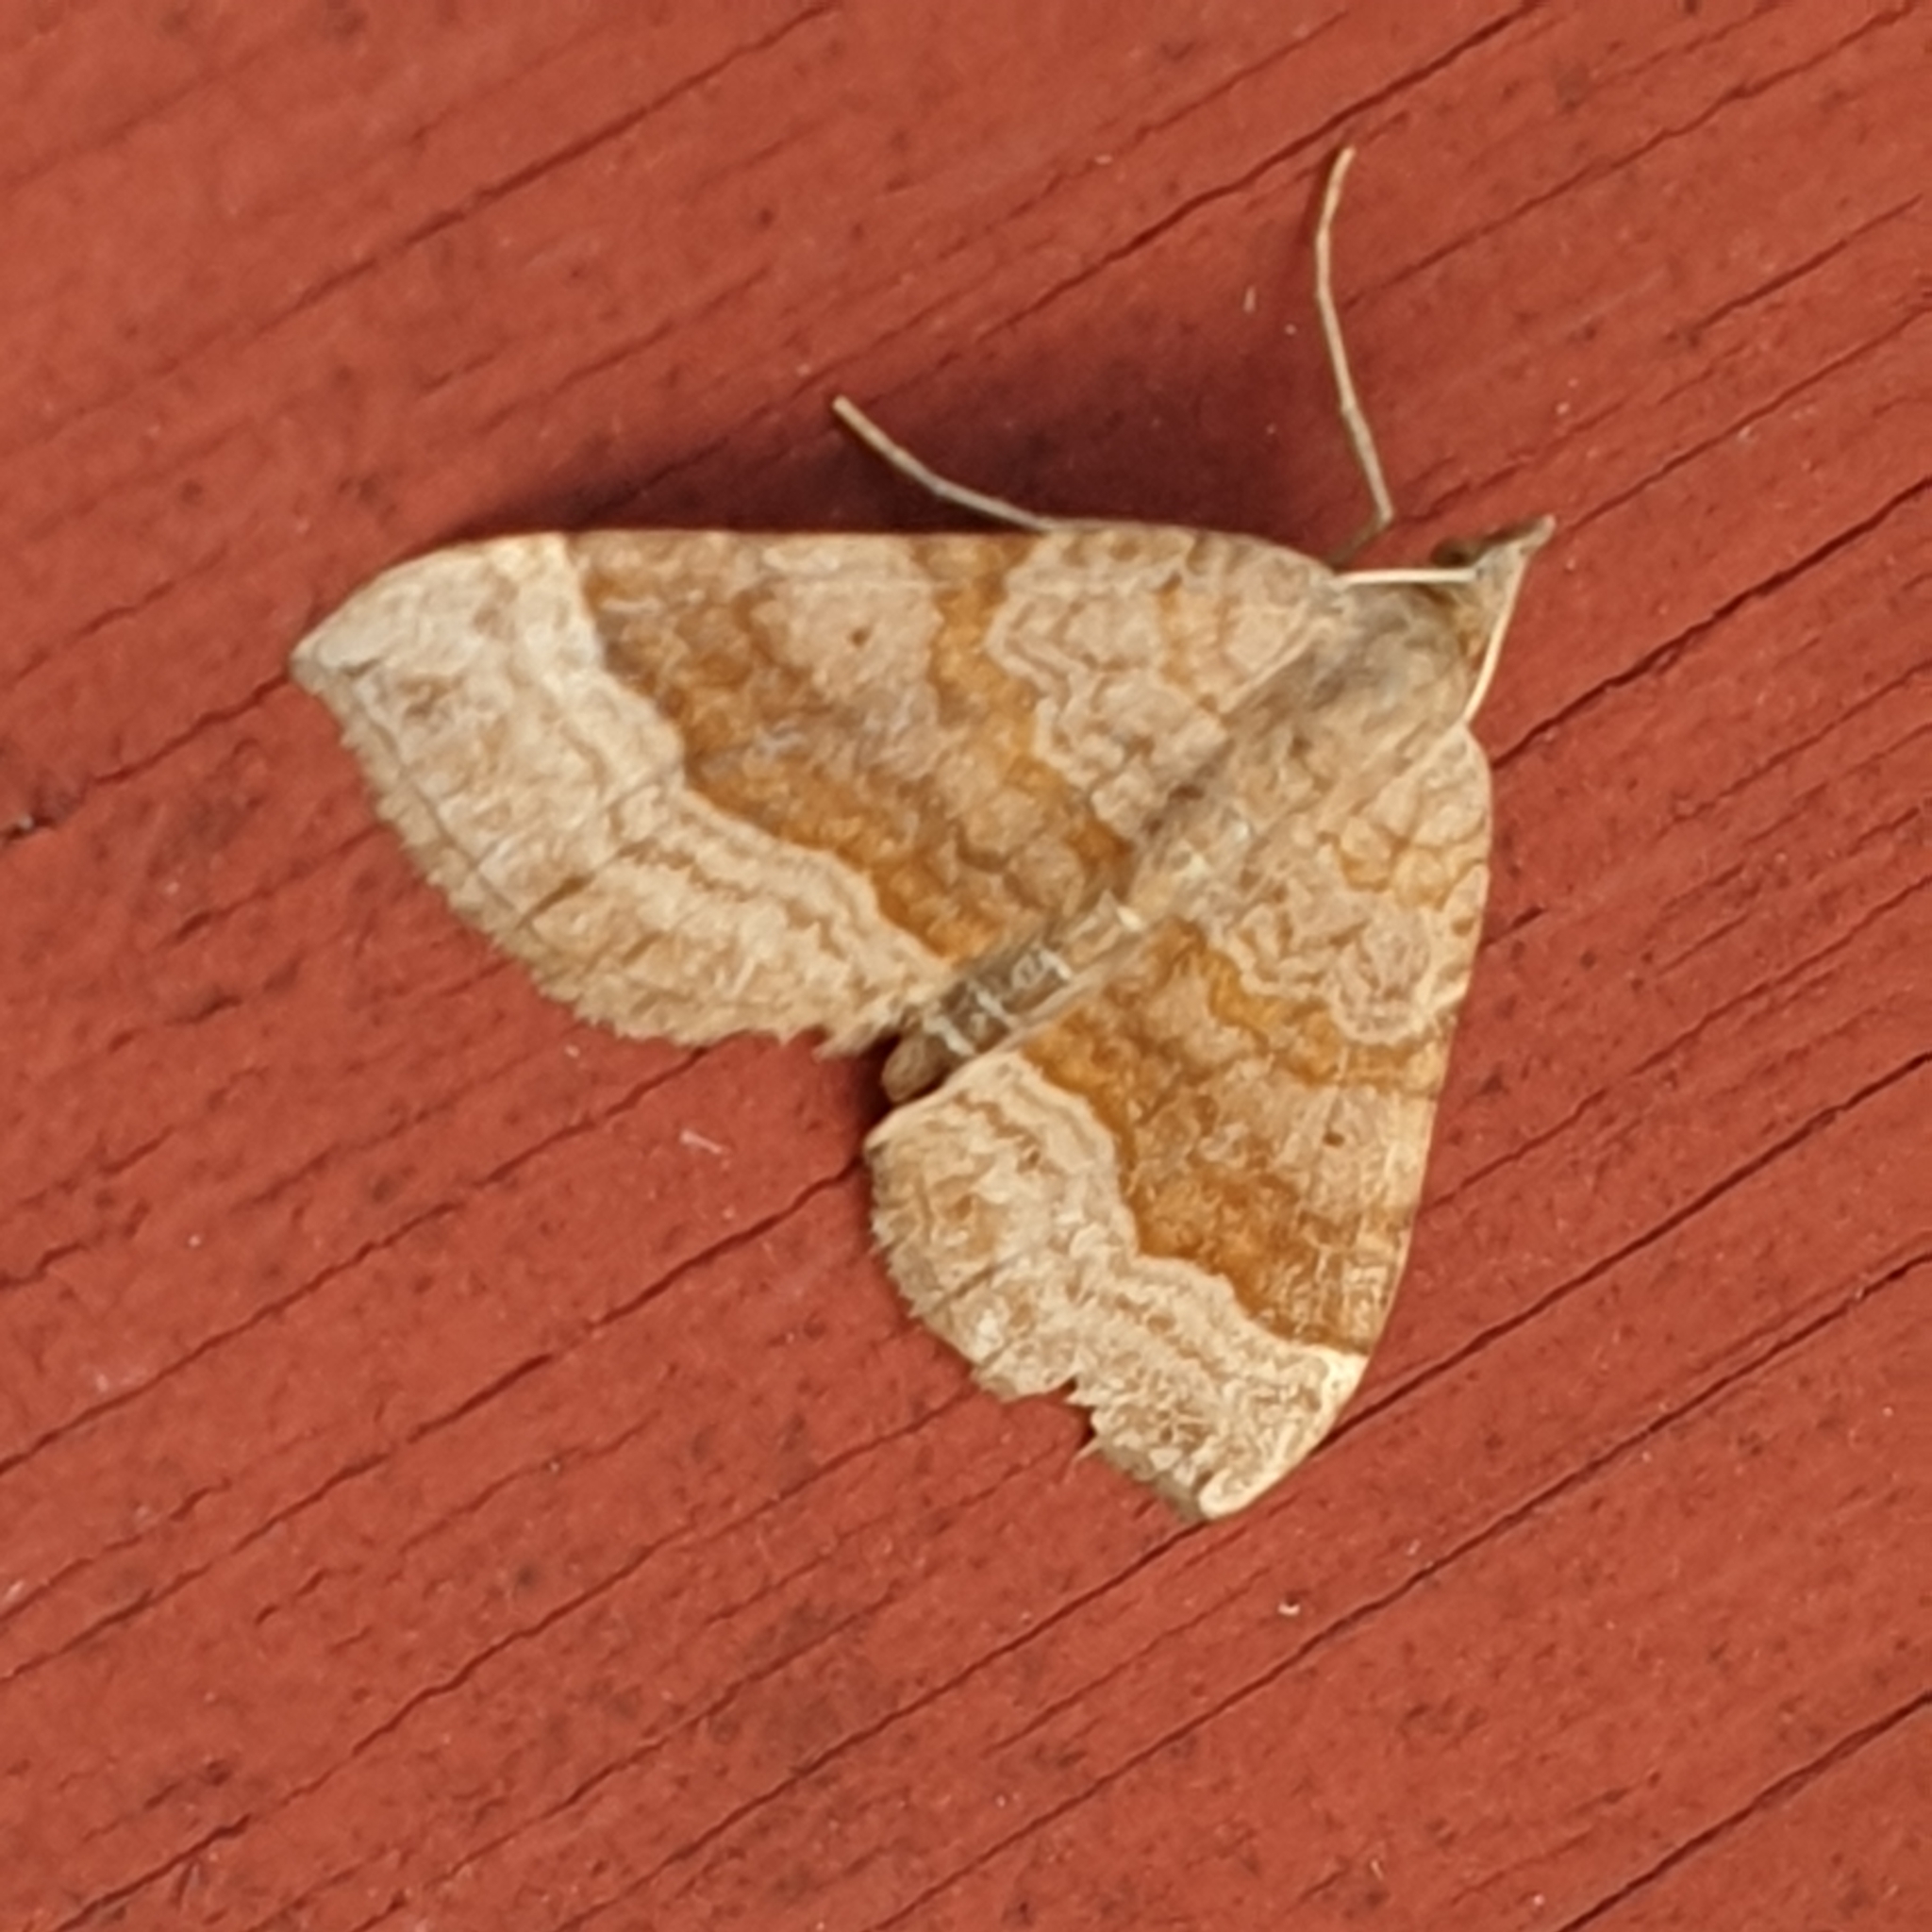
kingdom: Animalia
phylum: Arthropoda
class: Insecta
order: Lepidoptera
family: Geometridae
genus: Scotopteryx
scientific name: Scotopteryx chenopodiata
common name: Shaded broad-bar
